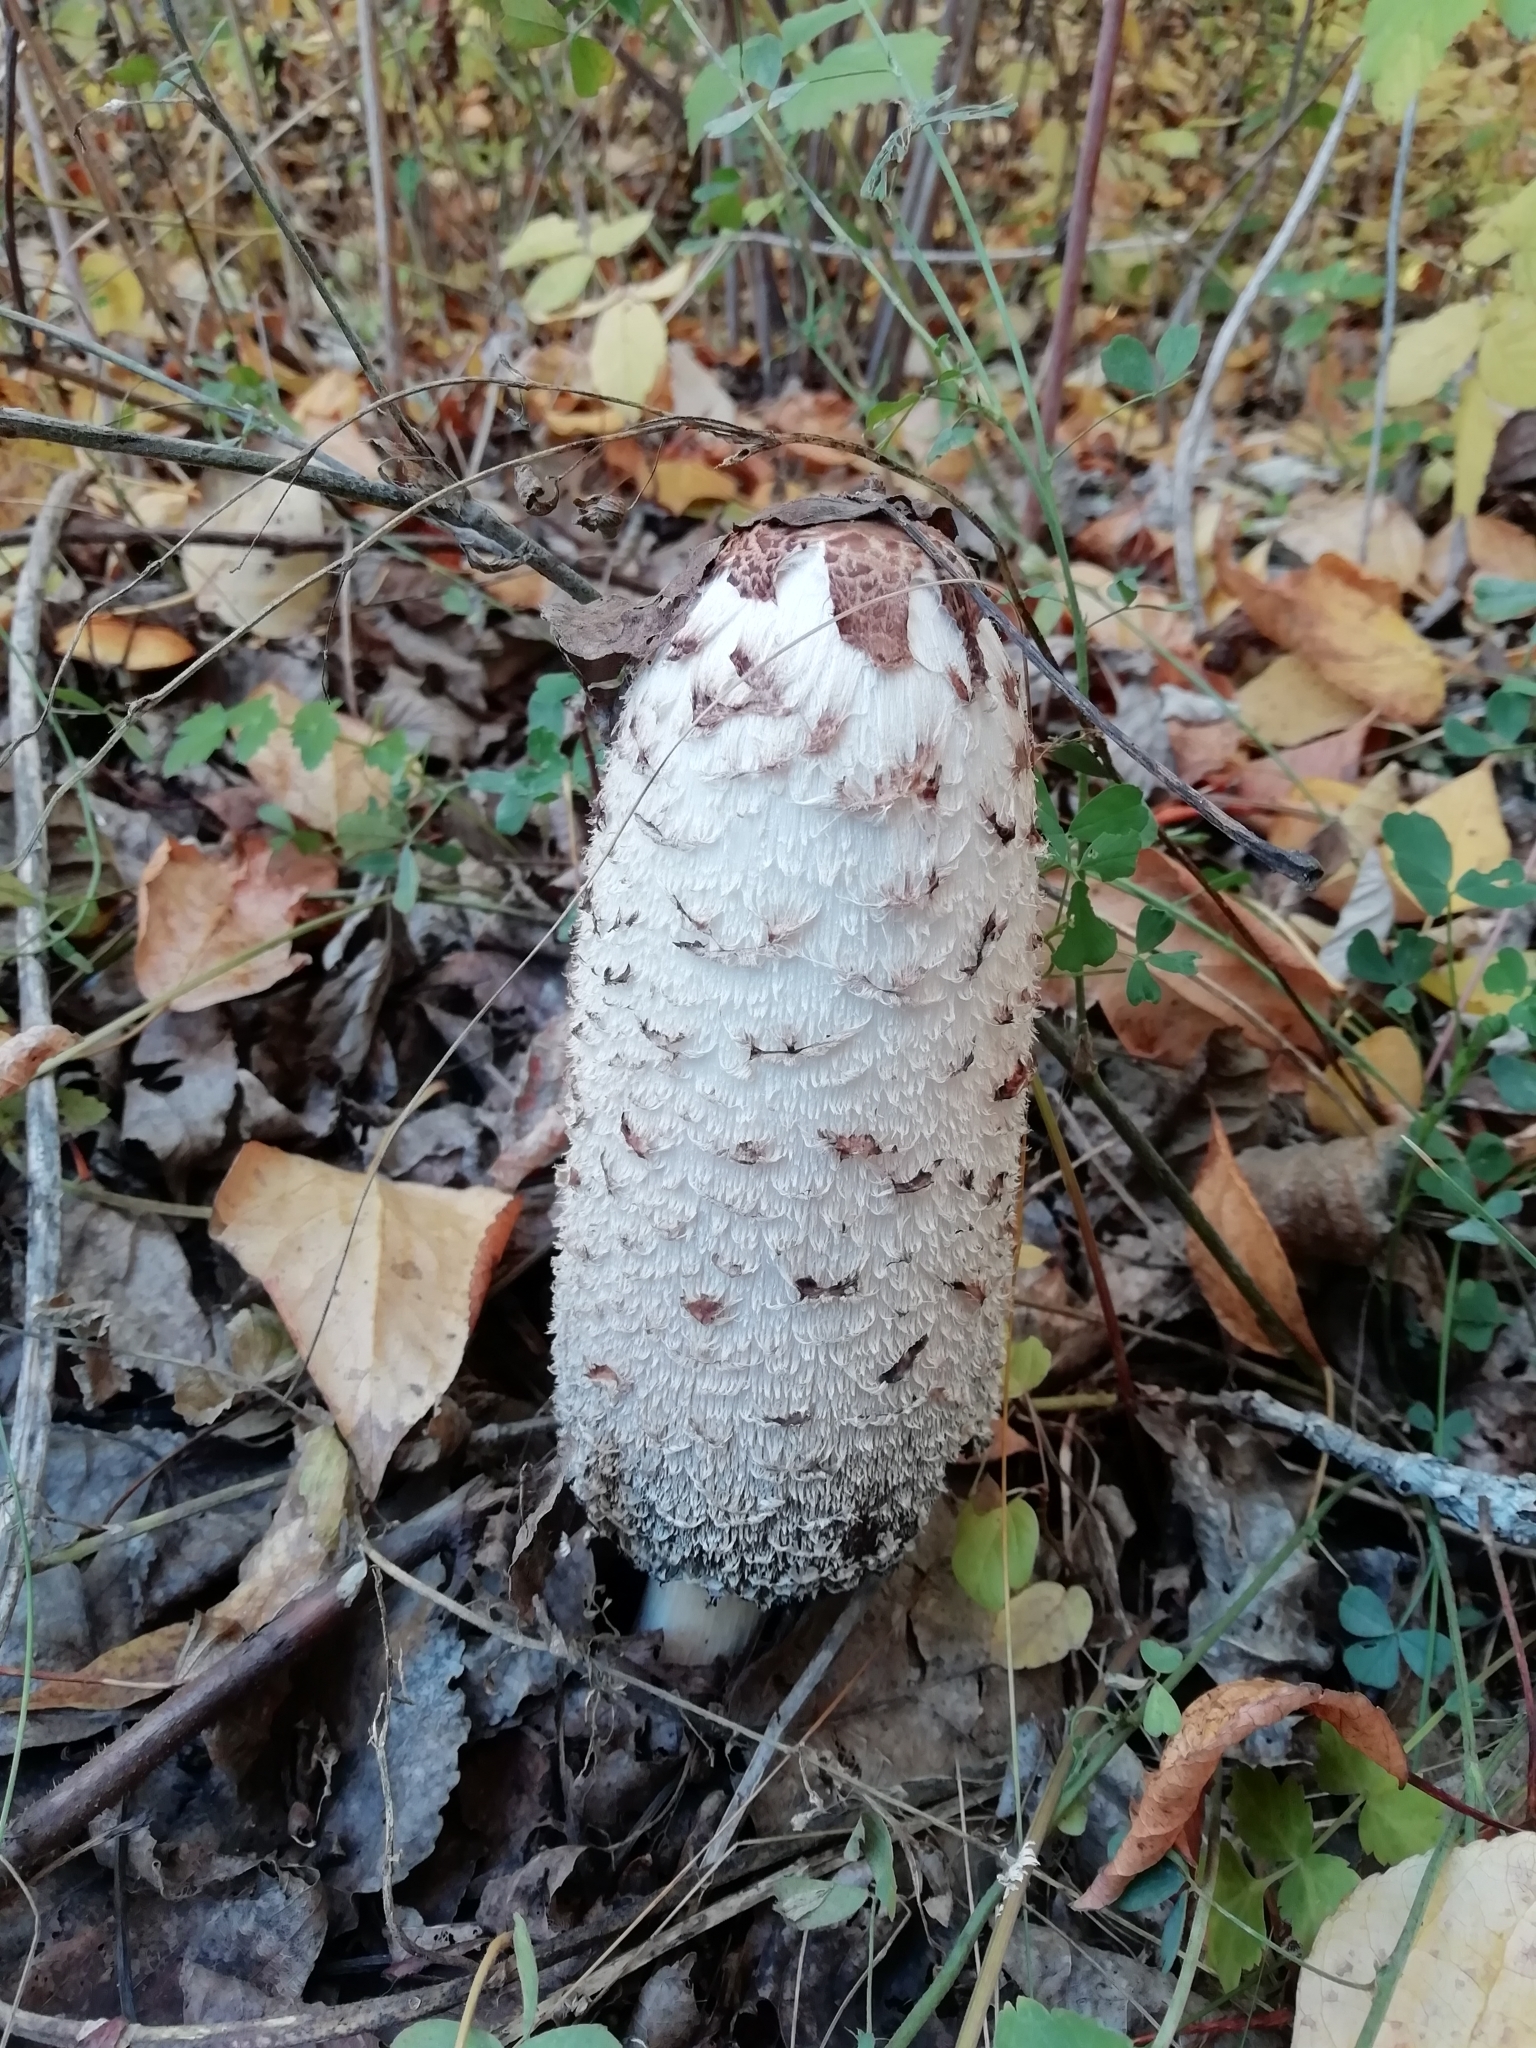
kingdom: Fungi
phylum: Basidiomycota
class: Agaricomycetes
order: Agaricales
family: Agaricaceae
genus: Coprinus
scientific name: Coprinus comatus
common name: Lawyer's wig
